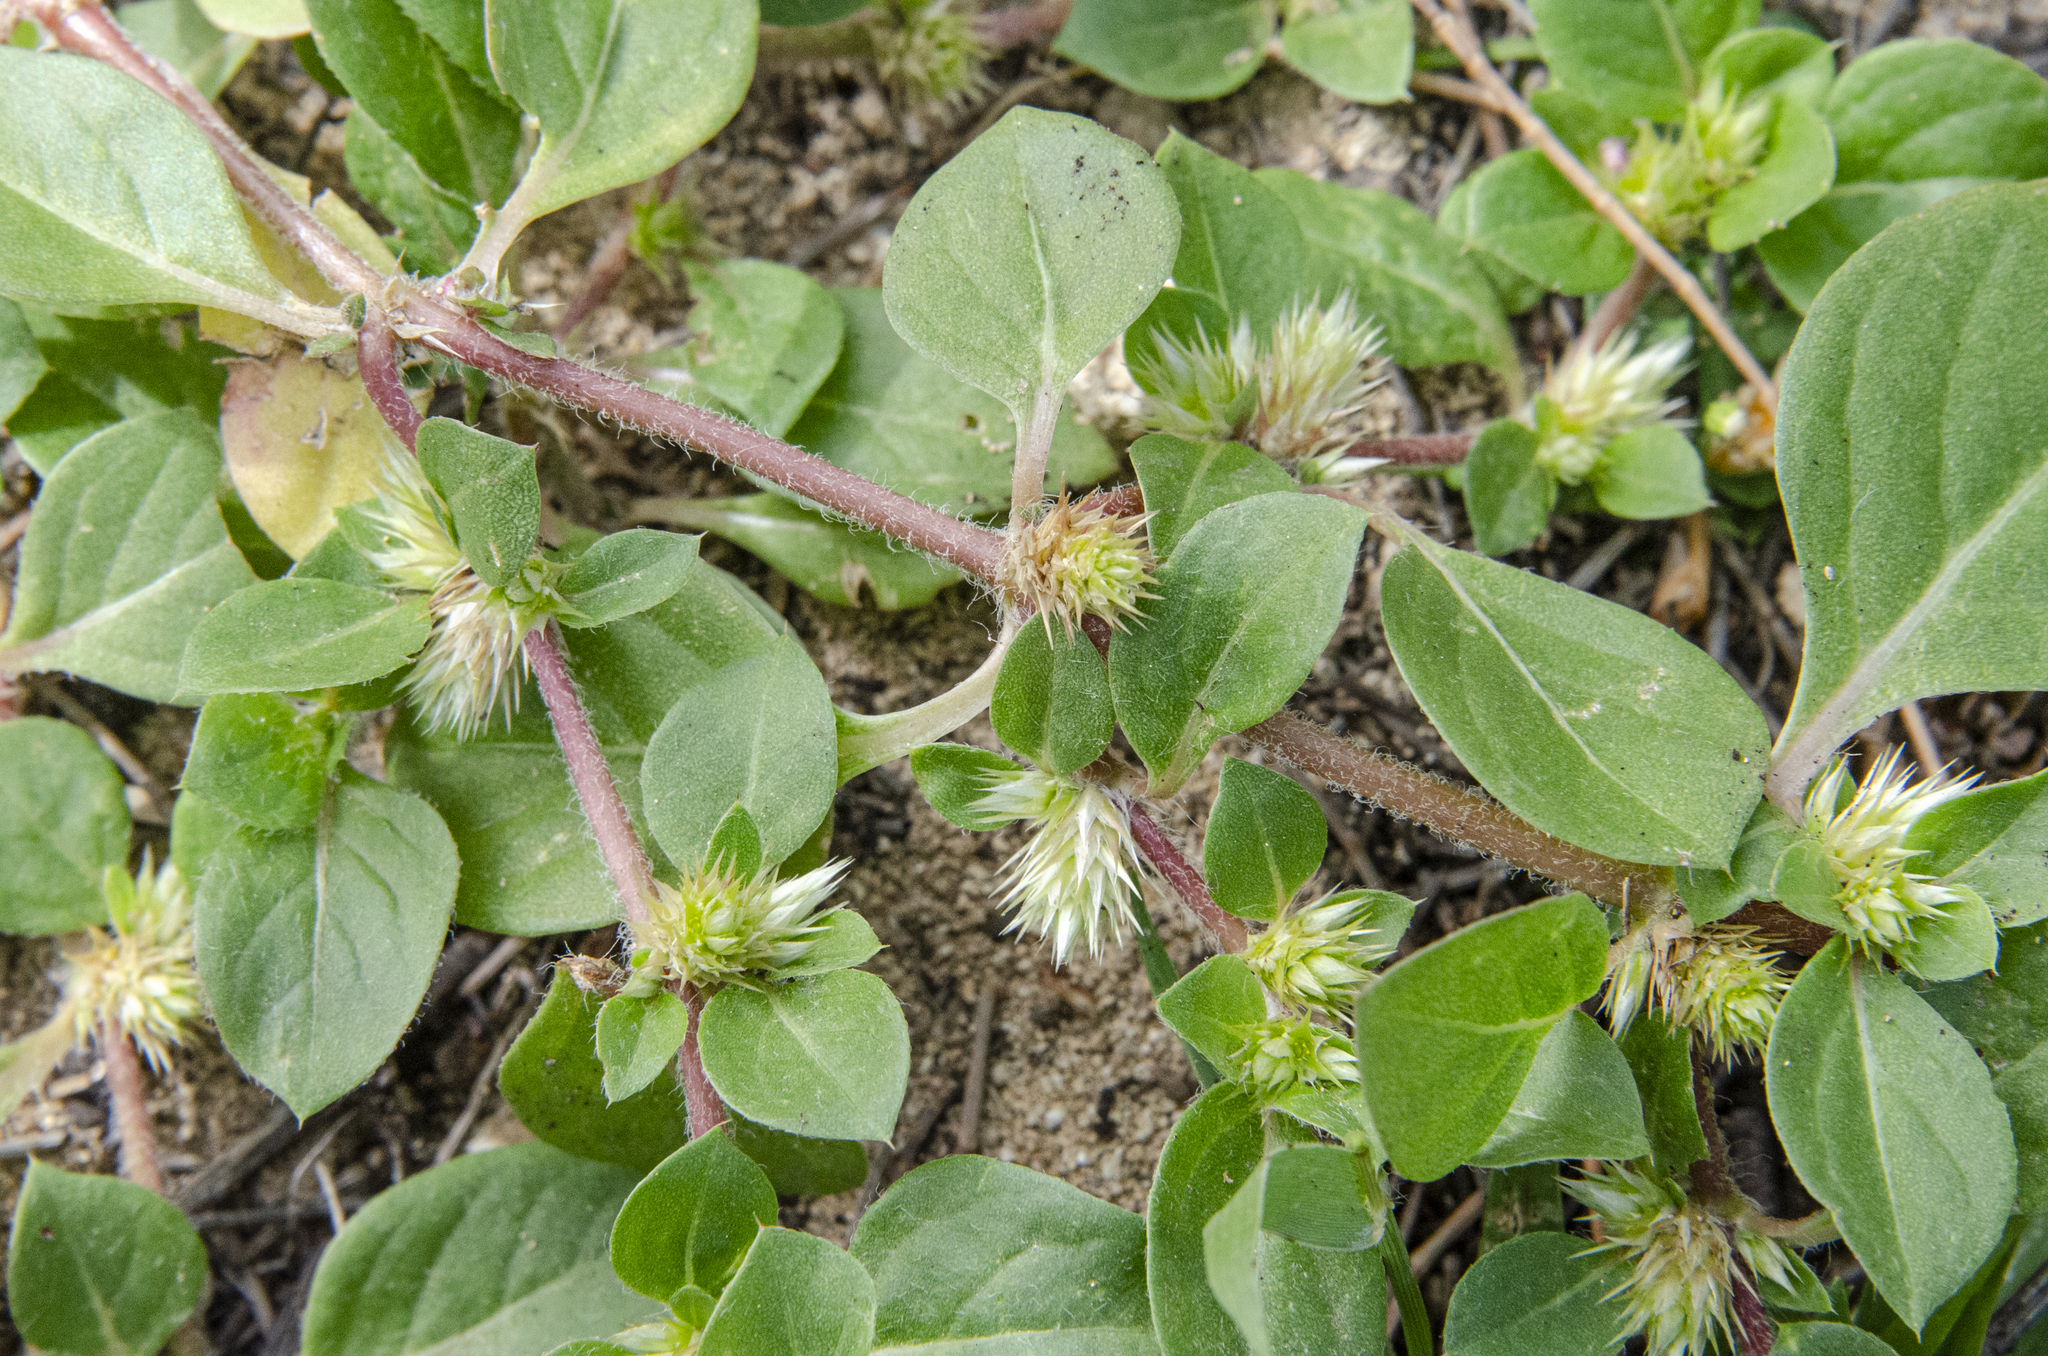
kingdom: Plantae
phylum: Tracheophyta
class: Magnoliopsida
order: Caryophyllales
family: Amaranthaceae
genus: Alternanthera
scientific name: Alternanthera pungens
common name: Khakiweed
